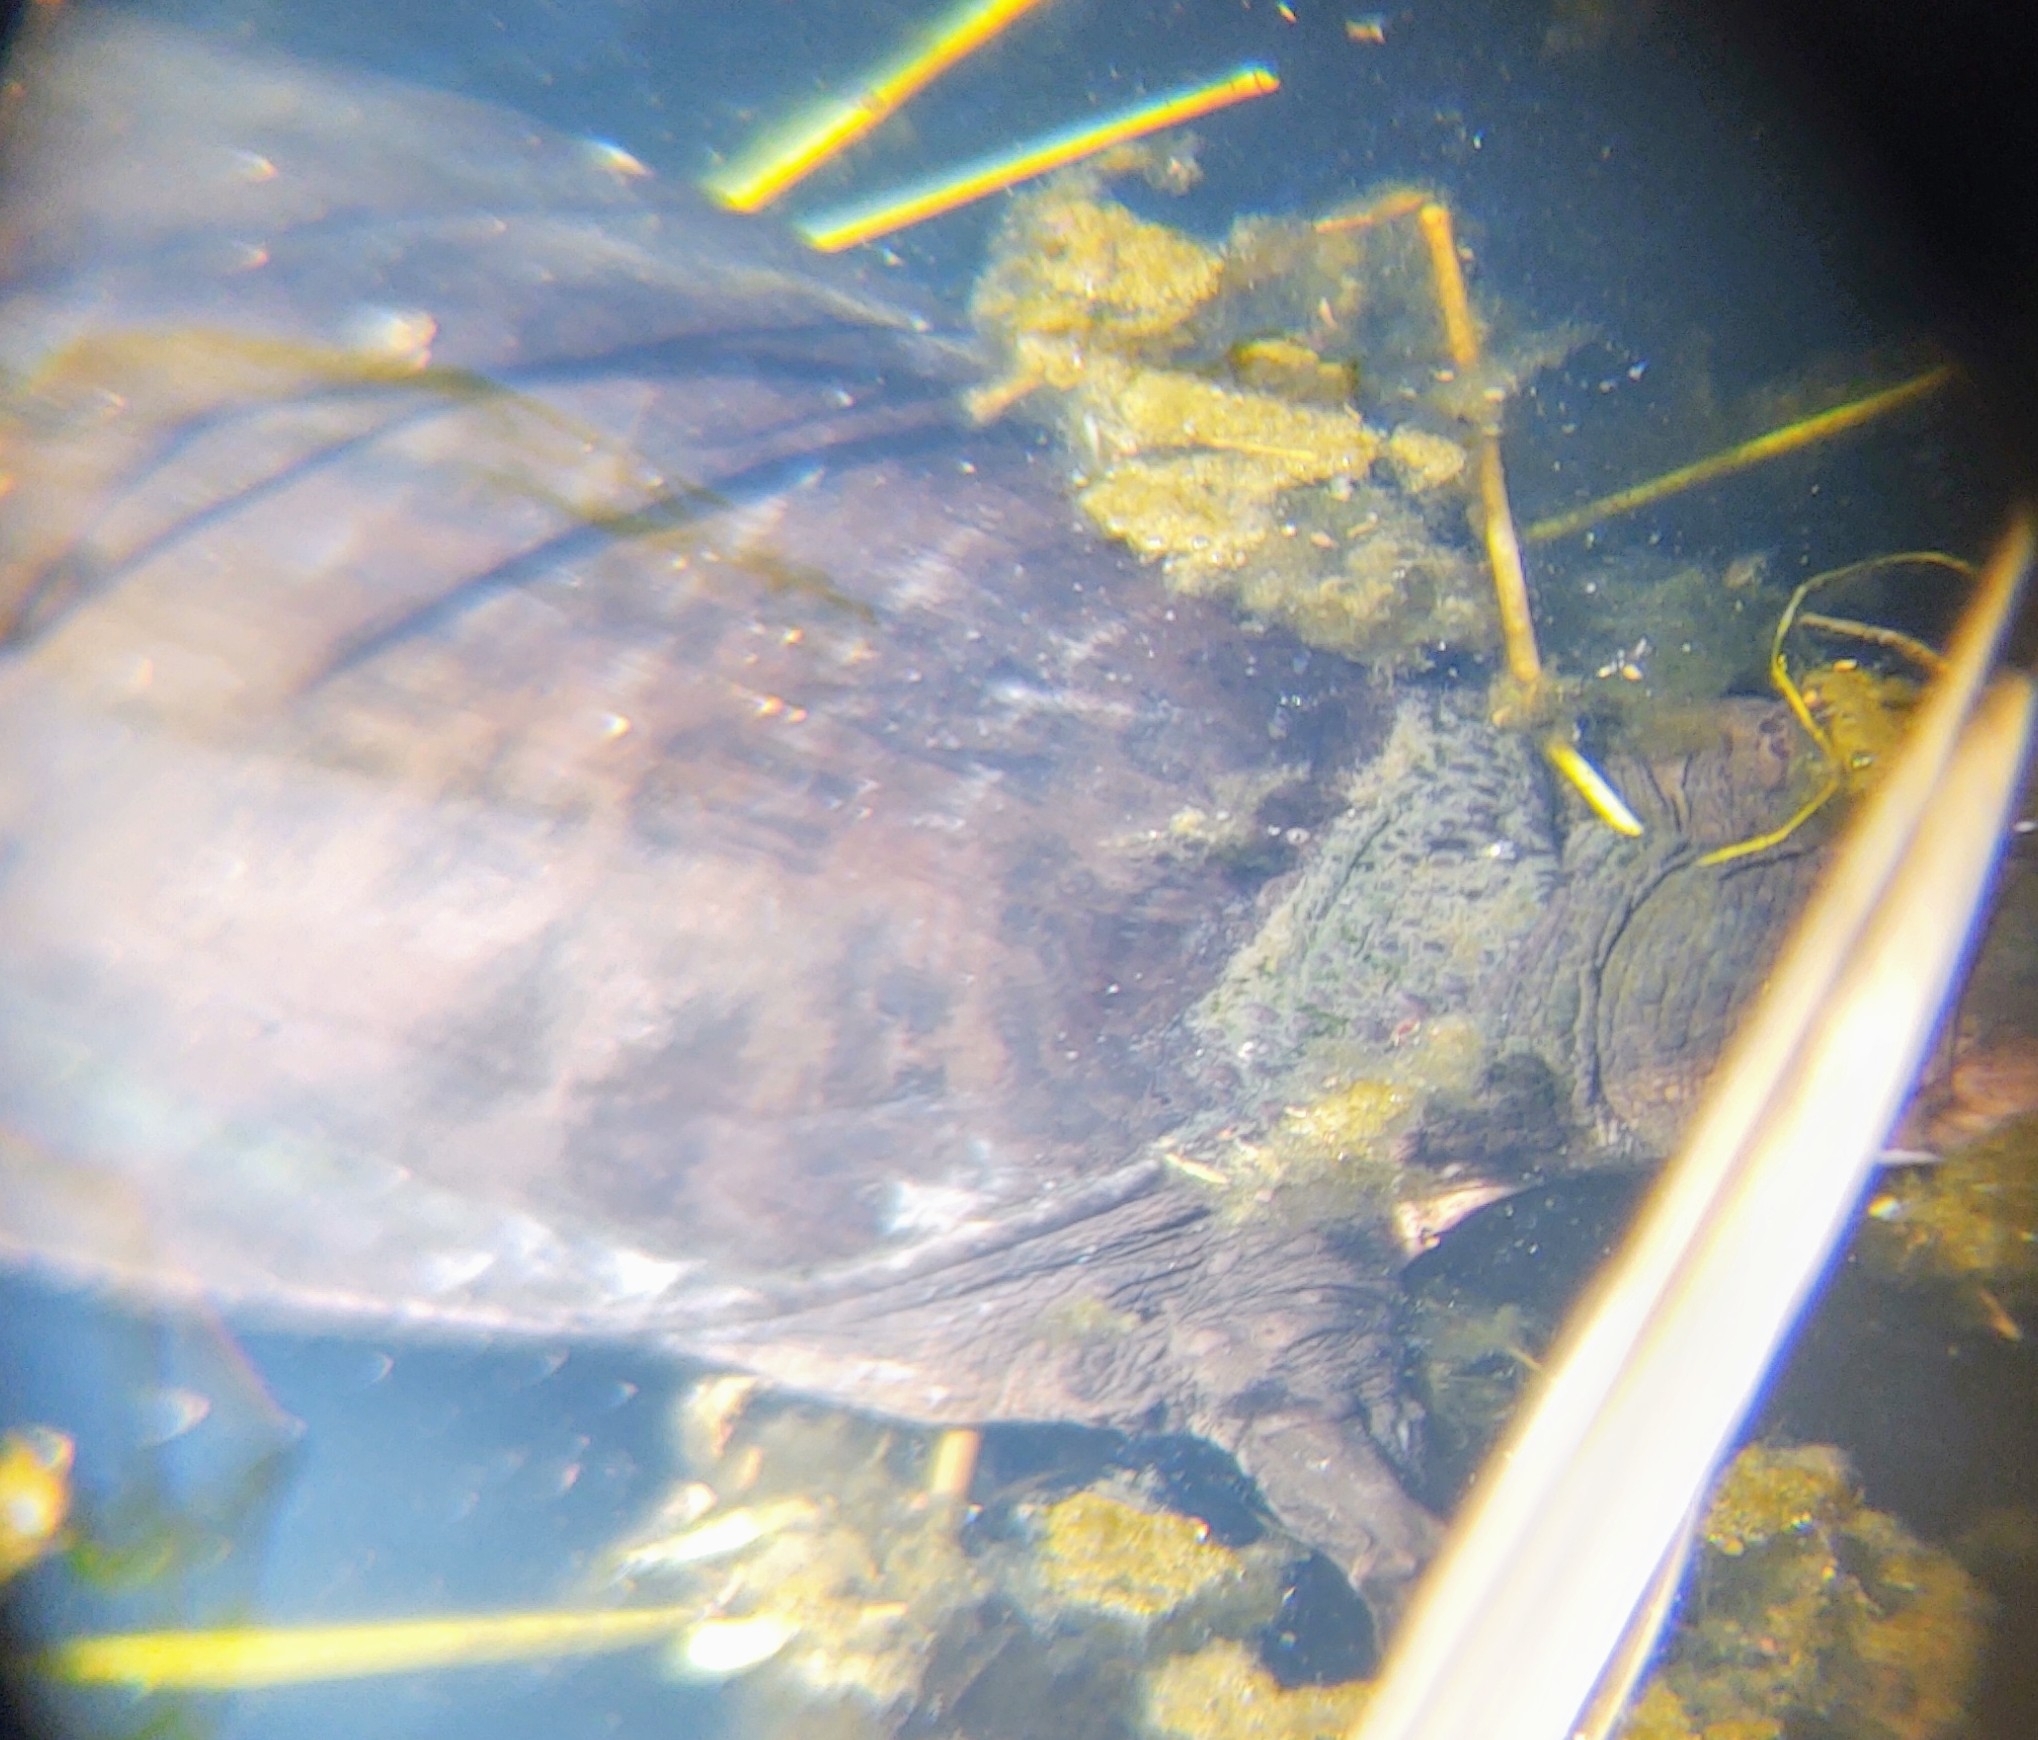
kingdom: Animalia
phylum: Chordata
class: Testudines
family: Trionychidae
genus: Apalone
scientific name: Apalone ferox
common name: Florida softshell turtle
